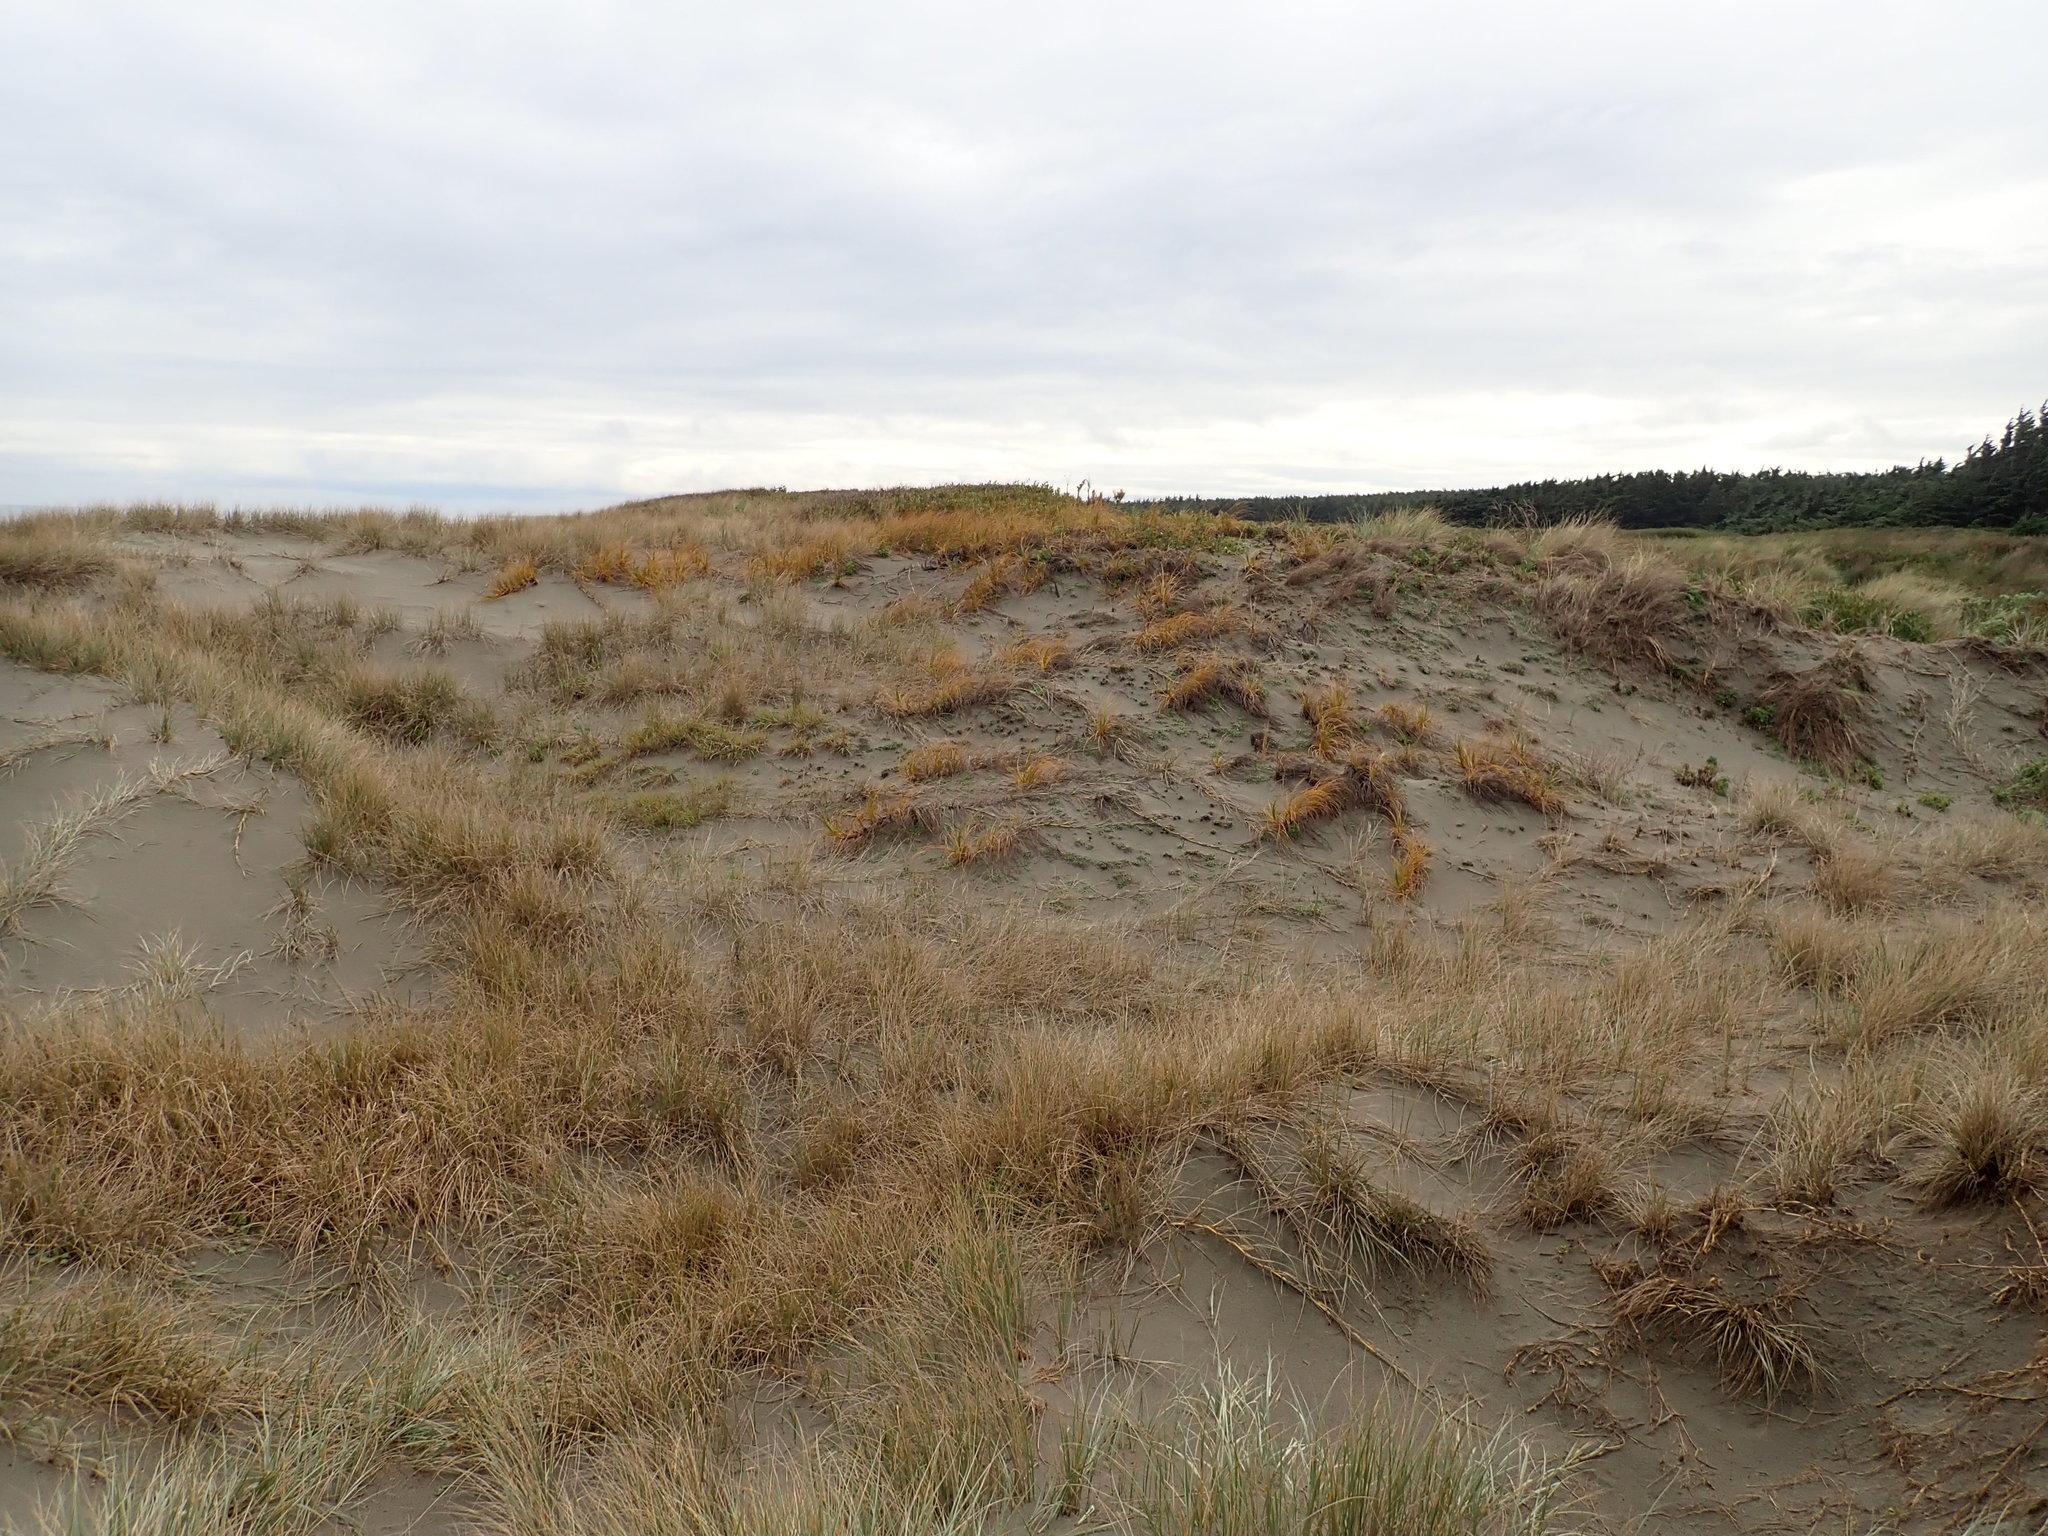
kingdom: Plantae
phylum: Tracheophyta
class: Liliopsida
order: Poales
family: Cyperaceae
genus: Ficinia
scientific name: Ficinia spiralis
